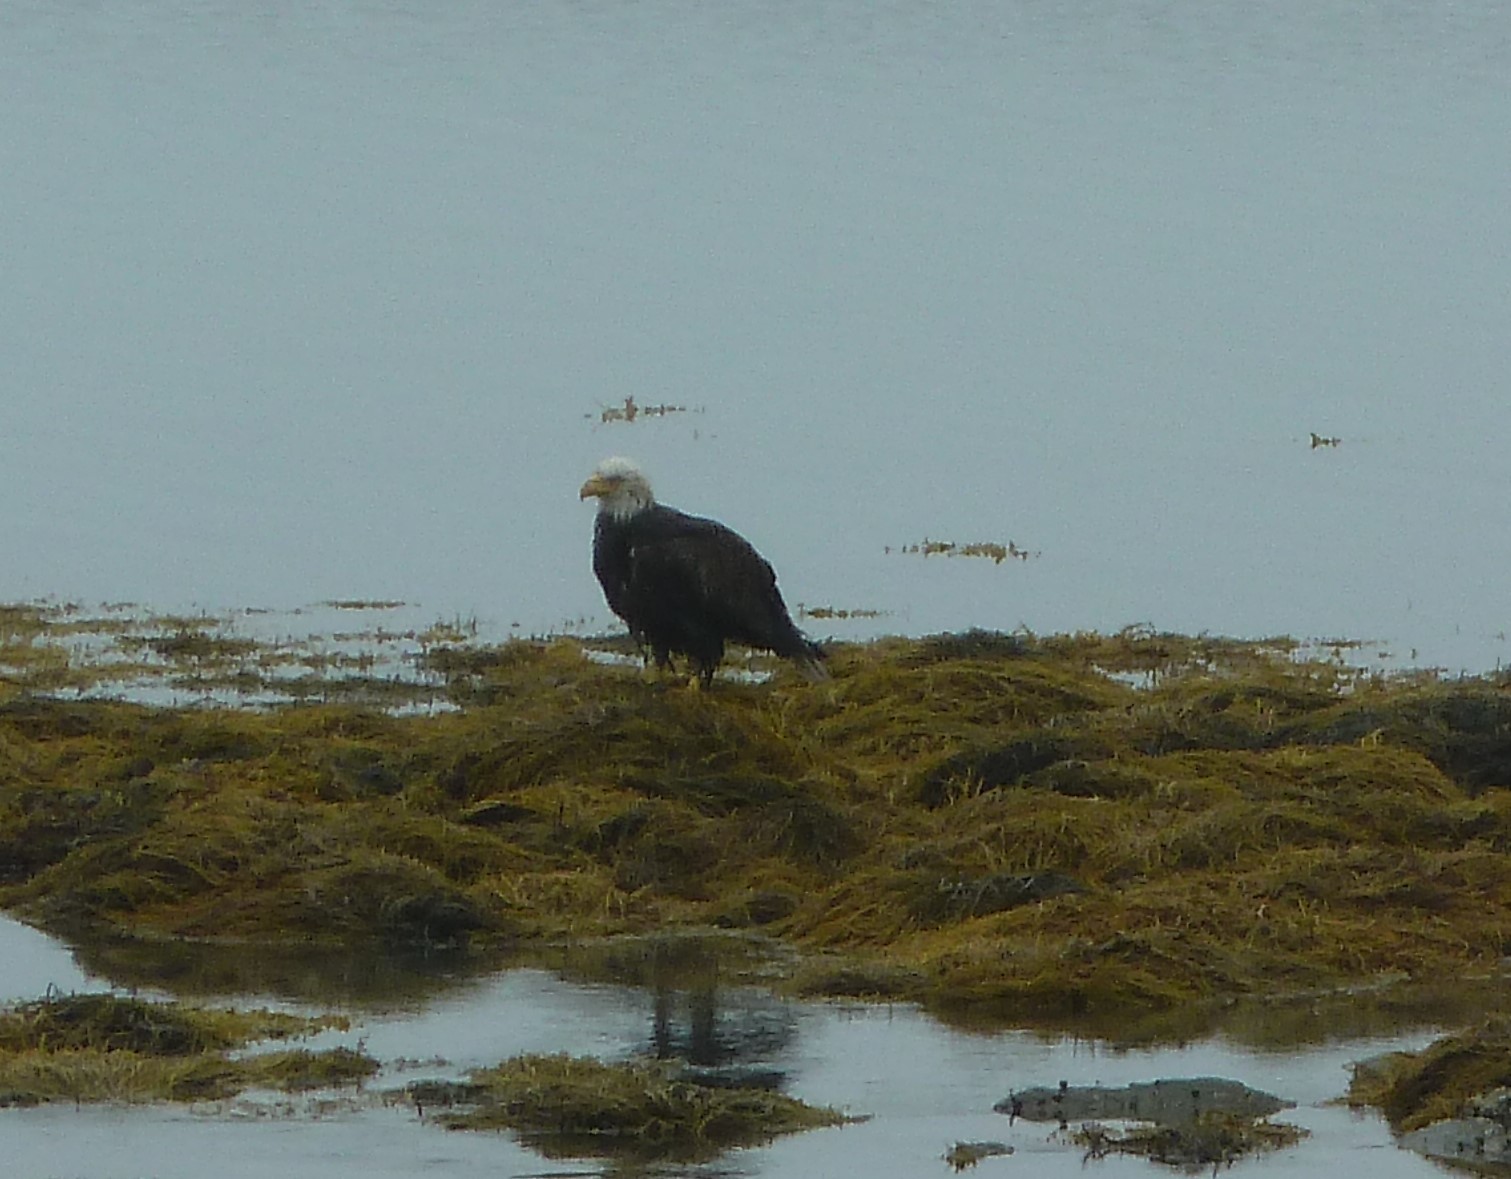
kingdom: Animalia
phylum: Chordata
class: Aves
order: Accipitriformes
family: Accipitridae
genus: Haliaeetus
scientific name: Haliaeetus leucocephalus
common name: Bald eagle
